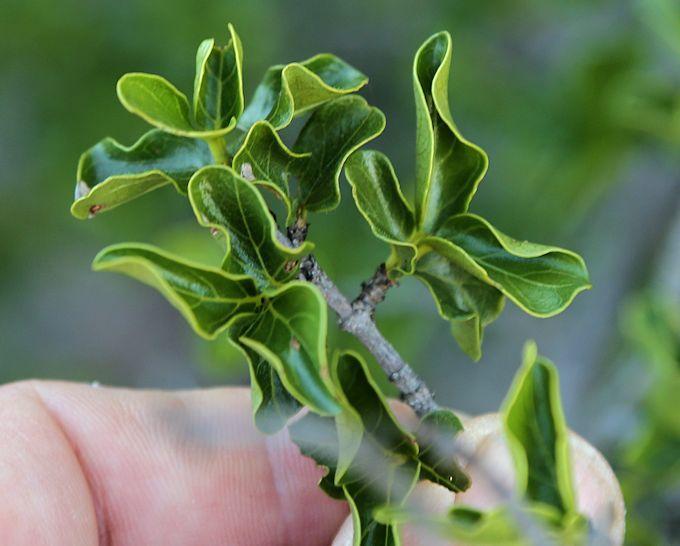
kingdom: Plantae
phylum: Tracheophyta
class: Magnoliopsida
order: Gentianales
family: Rubiaceae
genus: Vangueria
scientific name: Vangueria soutpansbergensis
